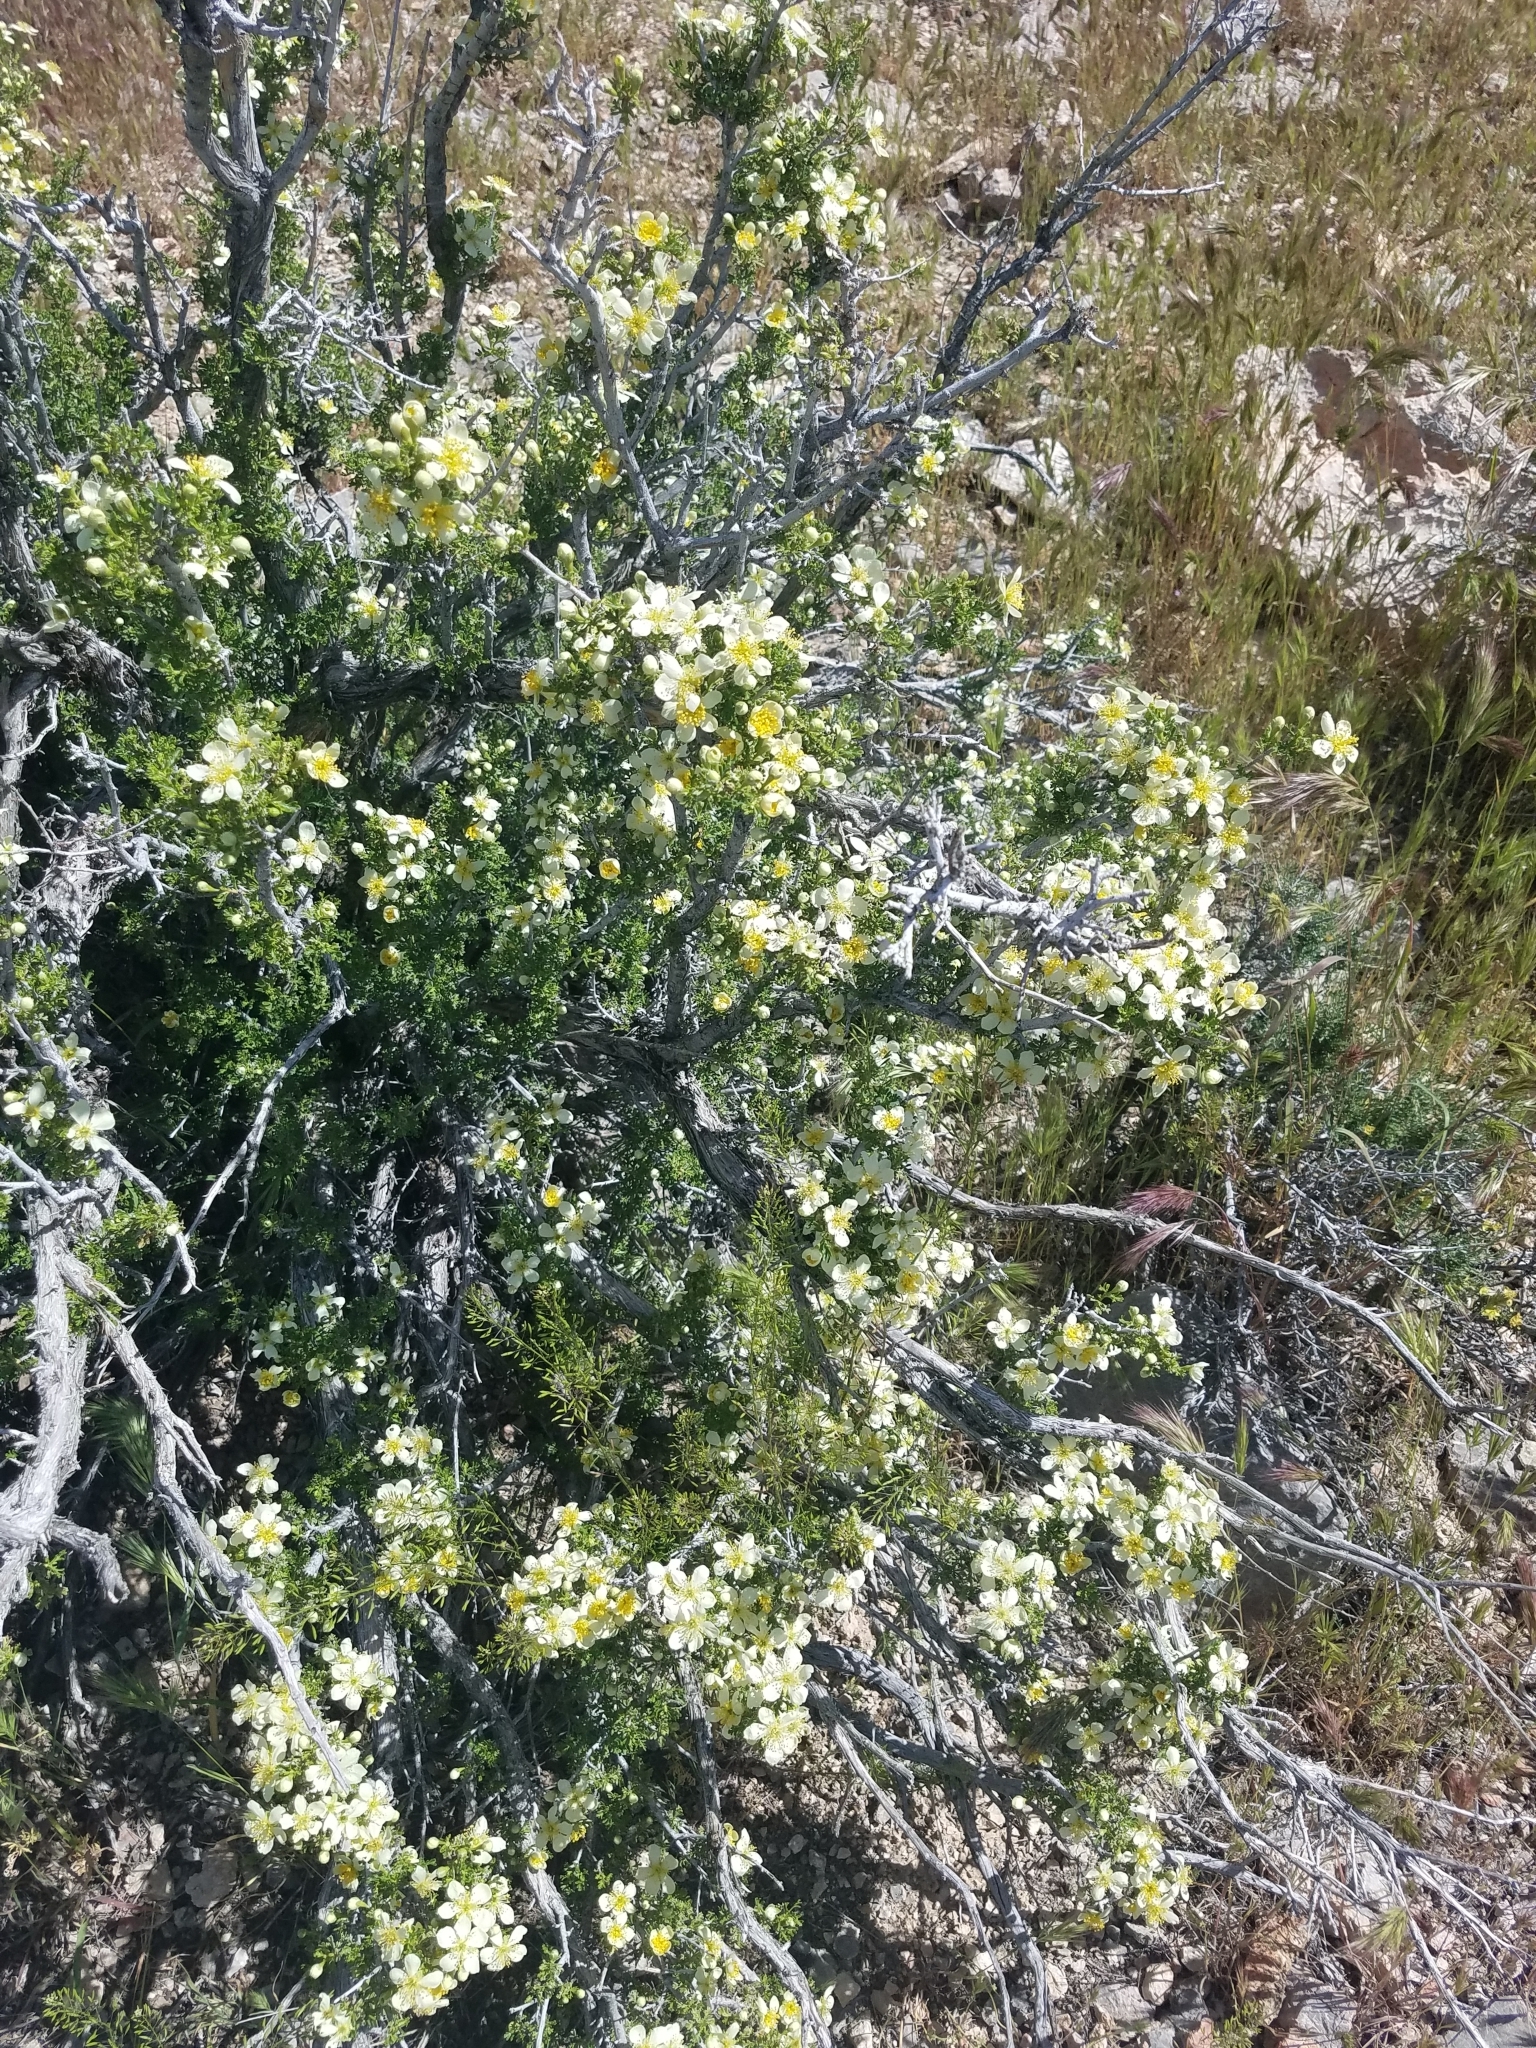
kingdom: Plantae
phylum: Tracheophyta
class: Magnoliopsida
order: Rosales
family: Rosaceae
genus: Purshia
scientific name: Purshia stansburiana
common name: Stansbury's cliffrose
